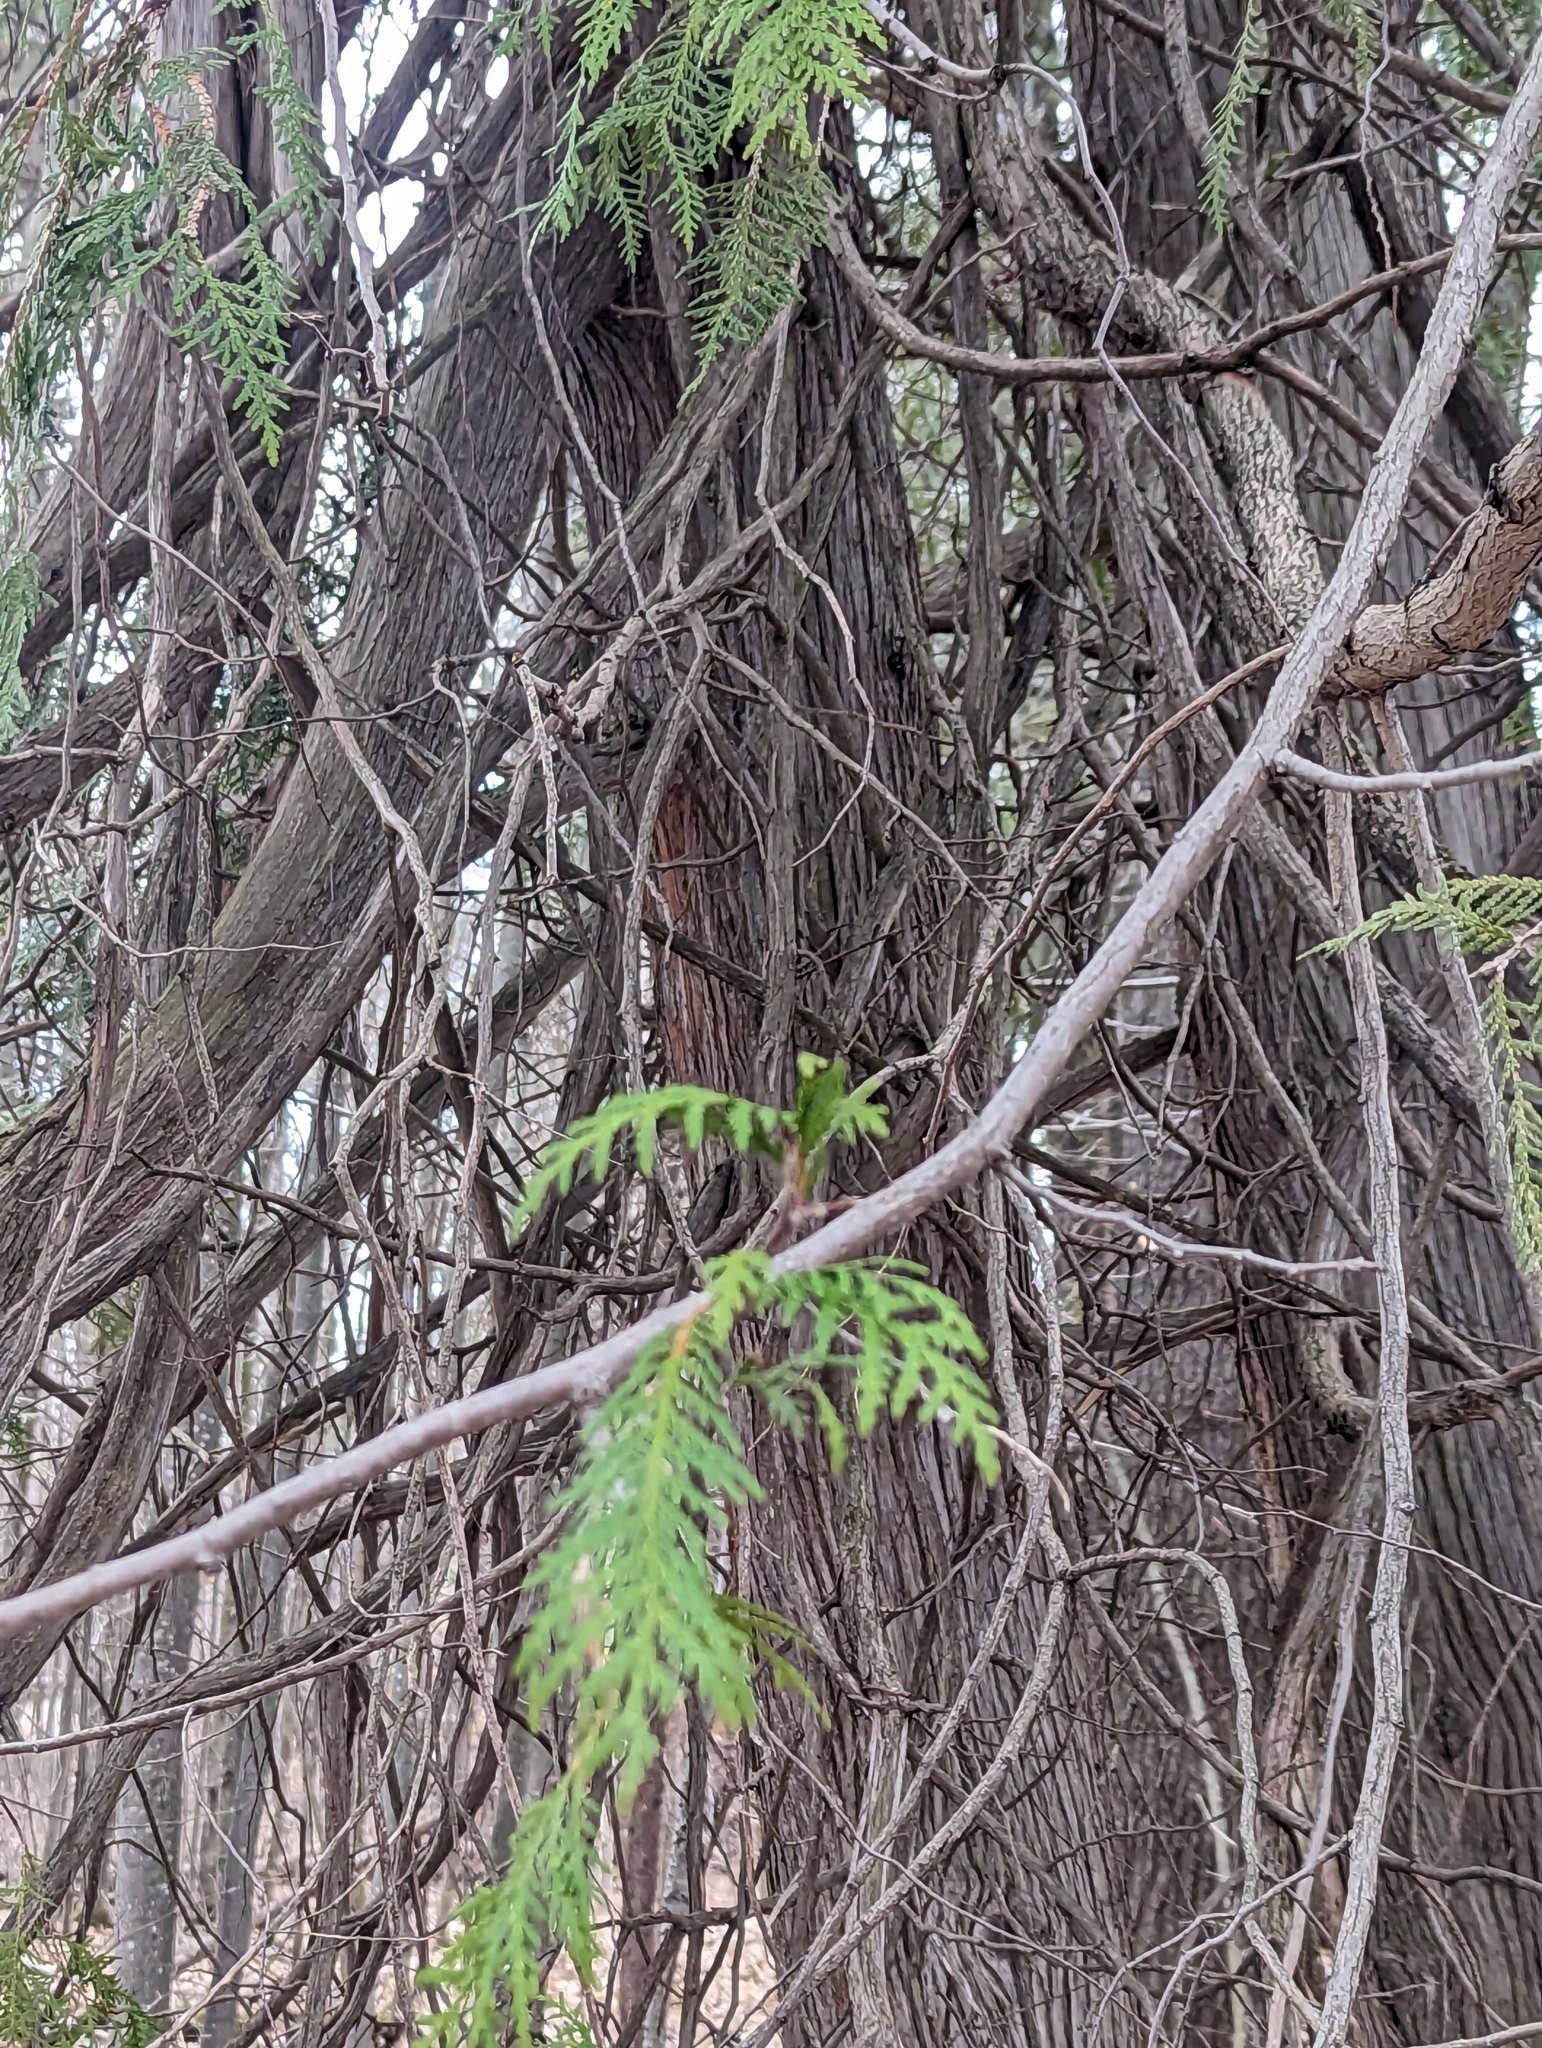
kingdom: Plantae
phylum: Tracheophyta
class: Pinopsida
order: Pinales
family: Cupressaceae
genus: Thuja
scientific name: Thuja occidentalis
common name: Northern white-cedar
